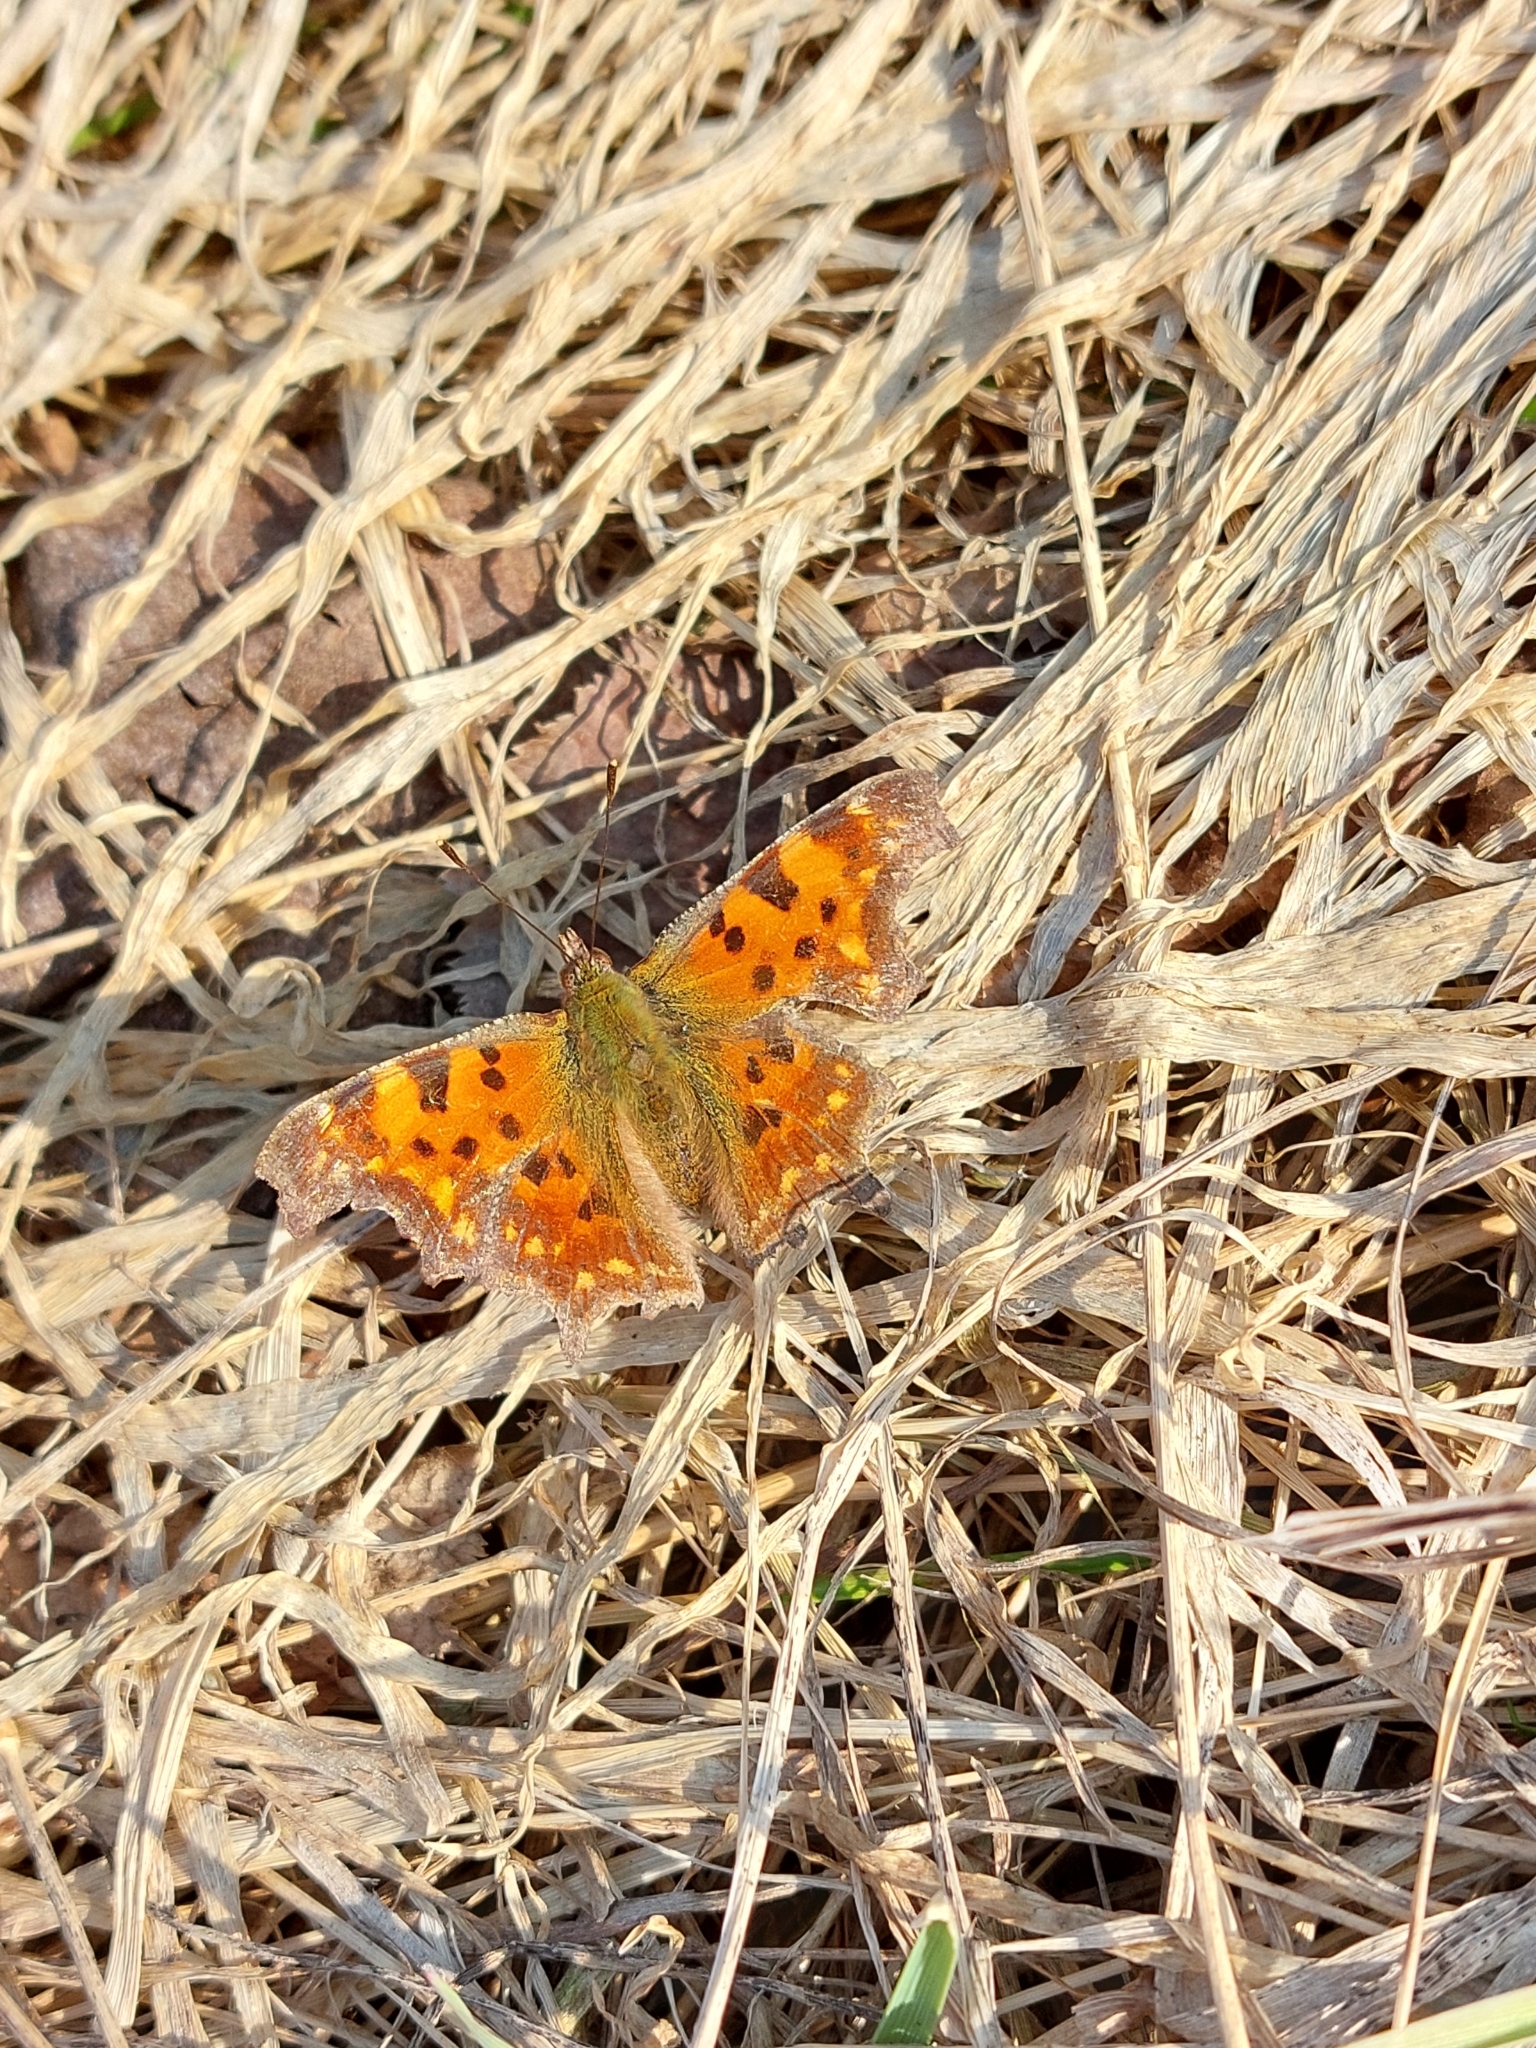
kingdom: Animalia
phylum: Arthropoda
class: Insecta
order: Lepidoptera
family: Nymphalidae
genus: Polygonia
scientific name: Polygonia c-album
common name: Comma
